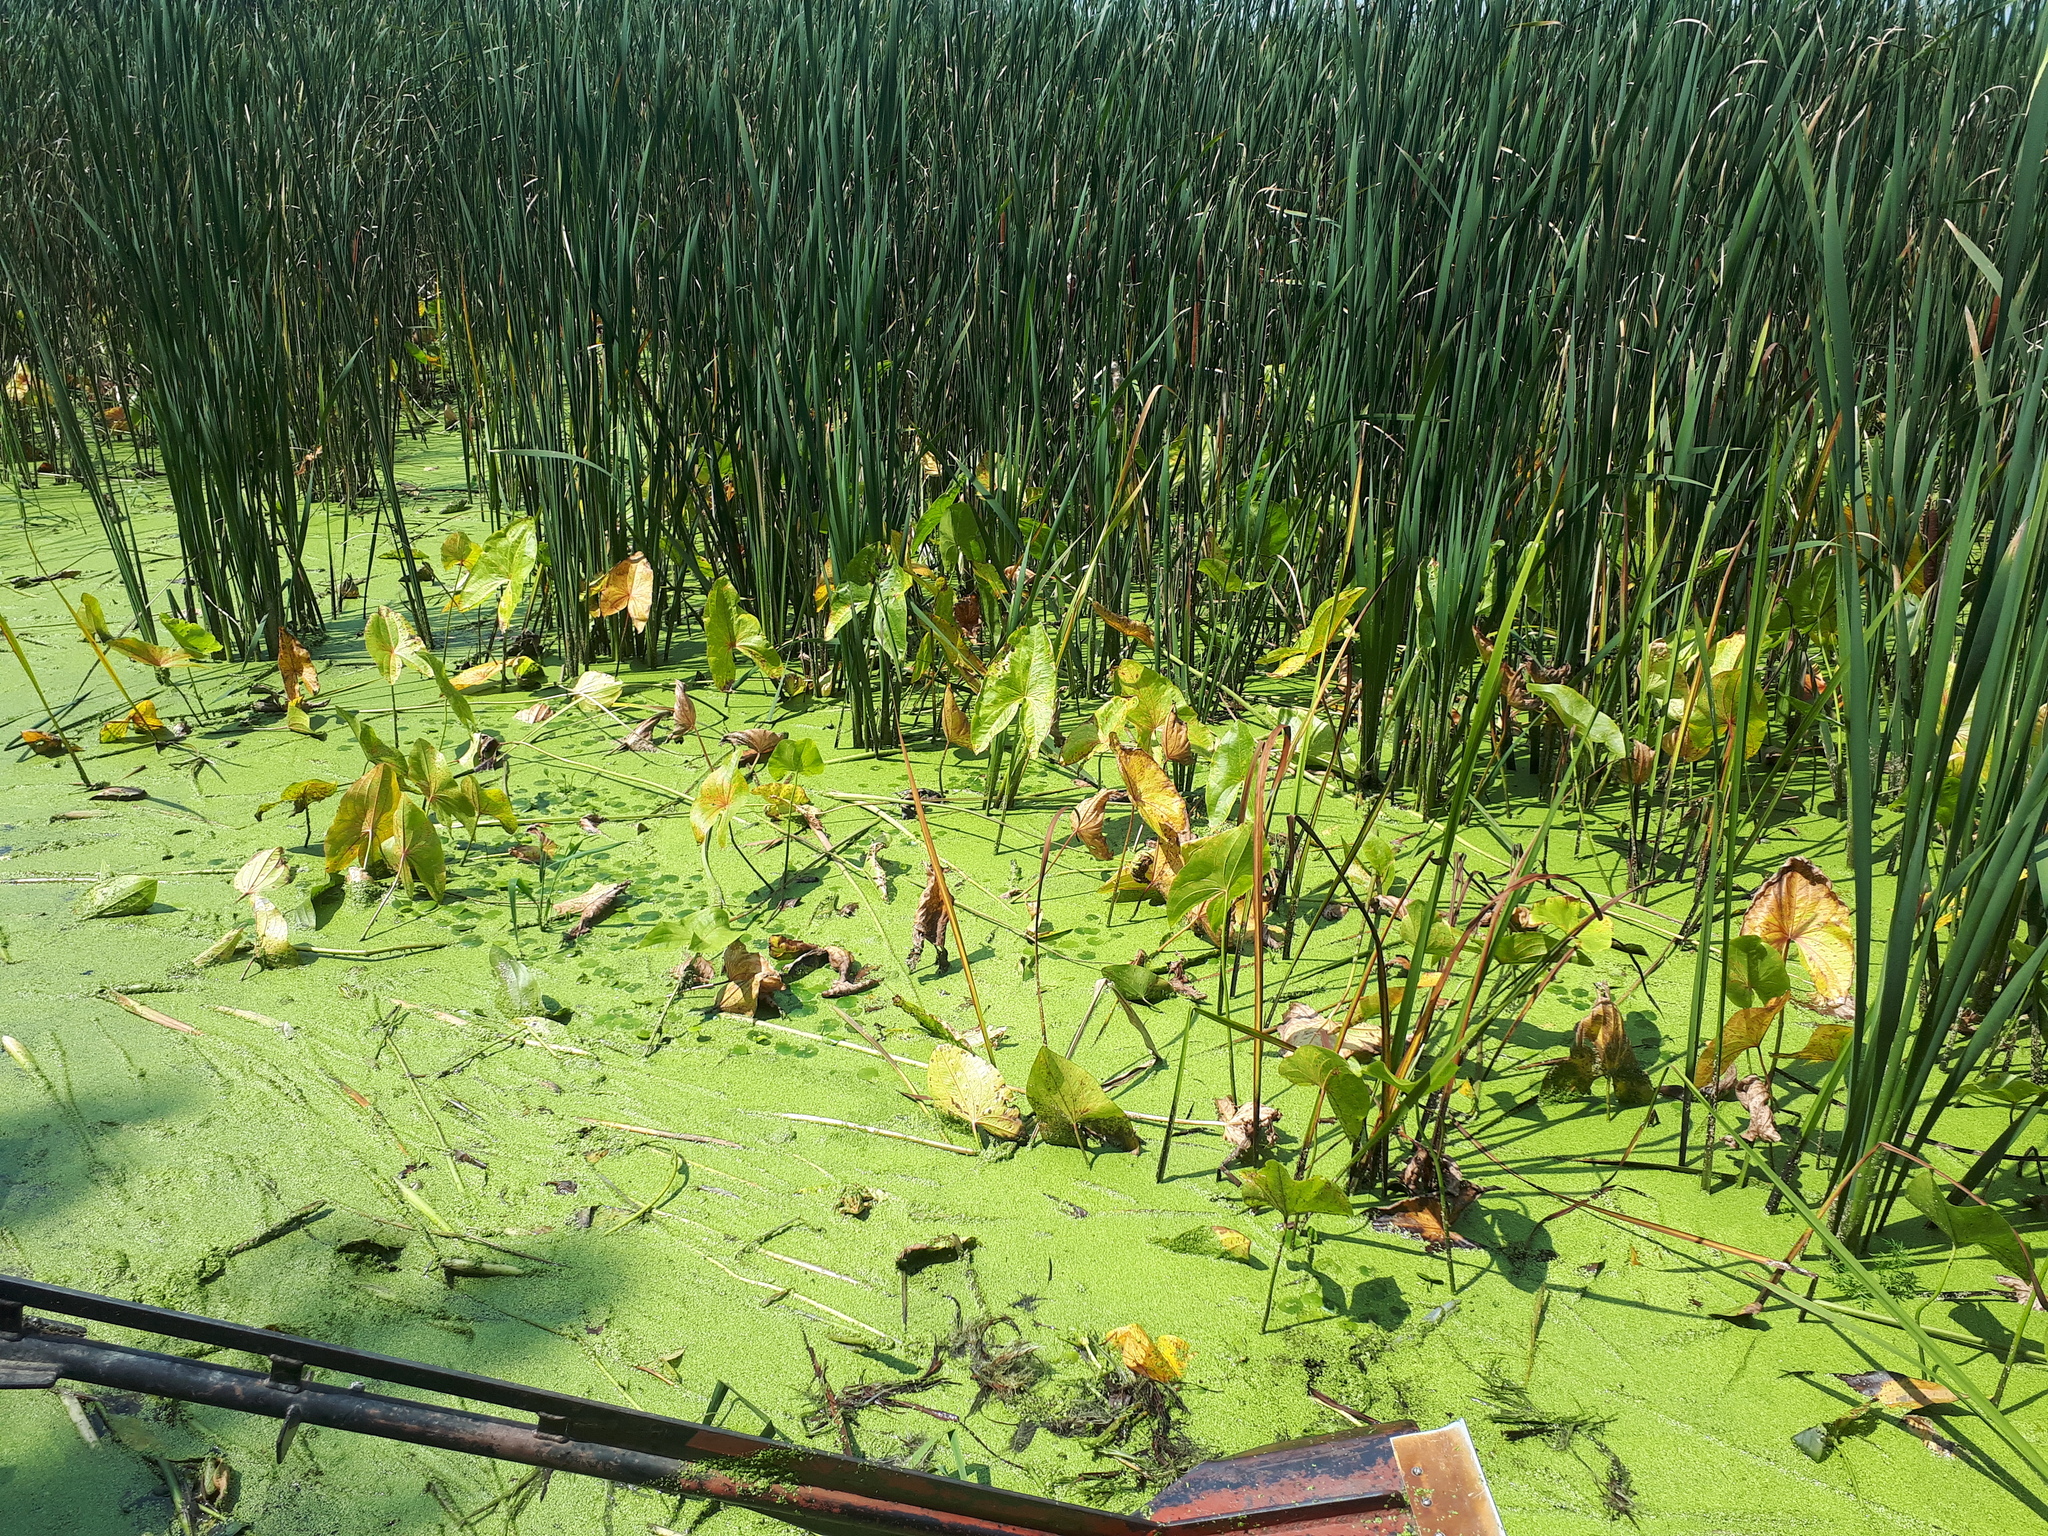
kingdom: Plantae
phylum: Tracheophyta
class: Liliopsida
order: Alismatales
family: Alismataceae
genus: Sagittaria
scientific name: Sagittaria latifolia
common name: Duck-potato
